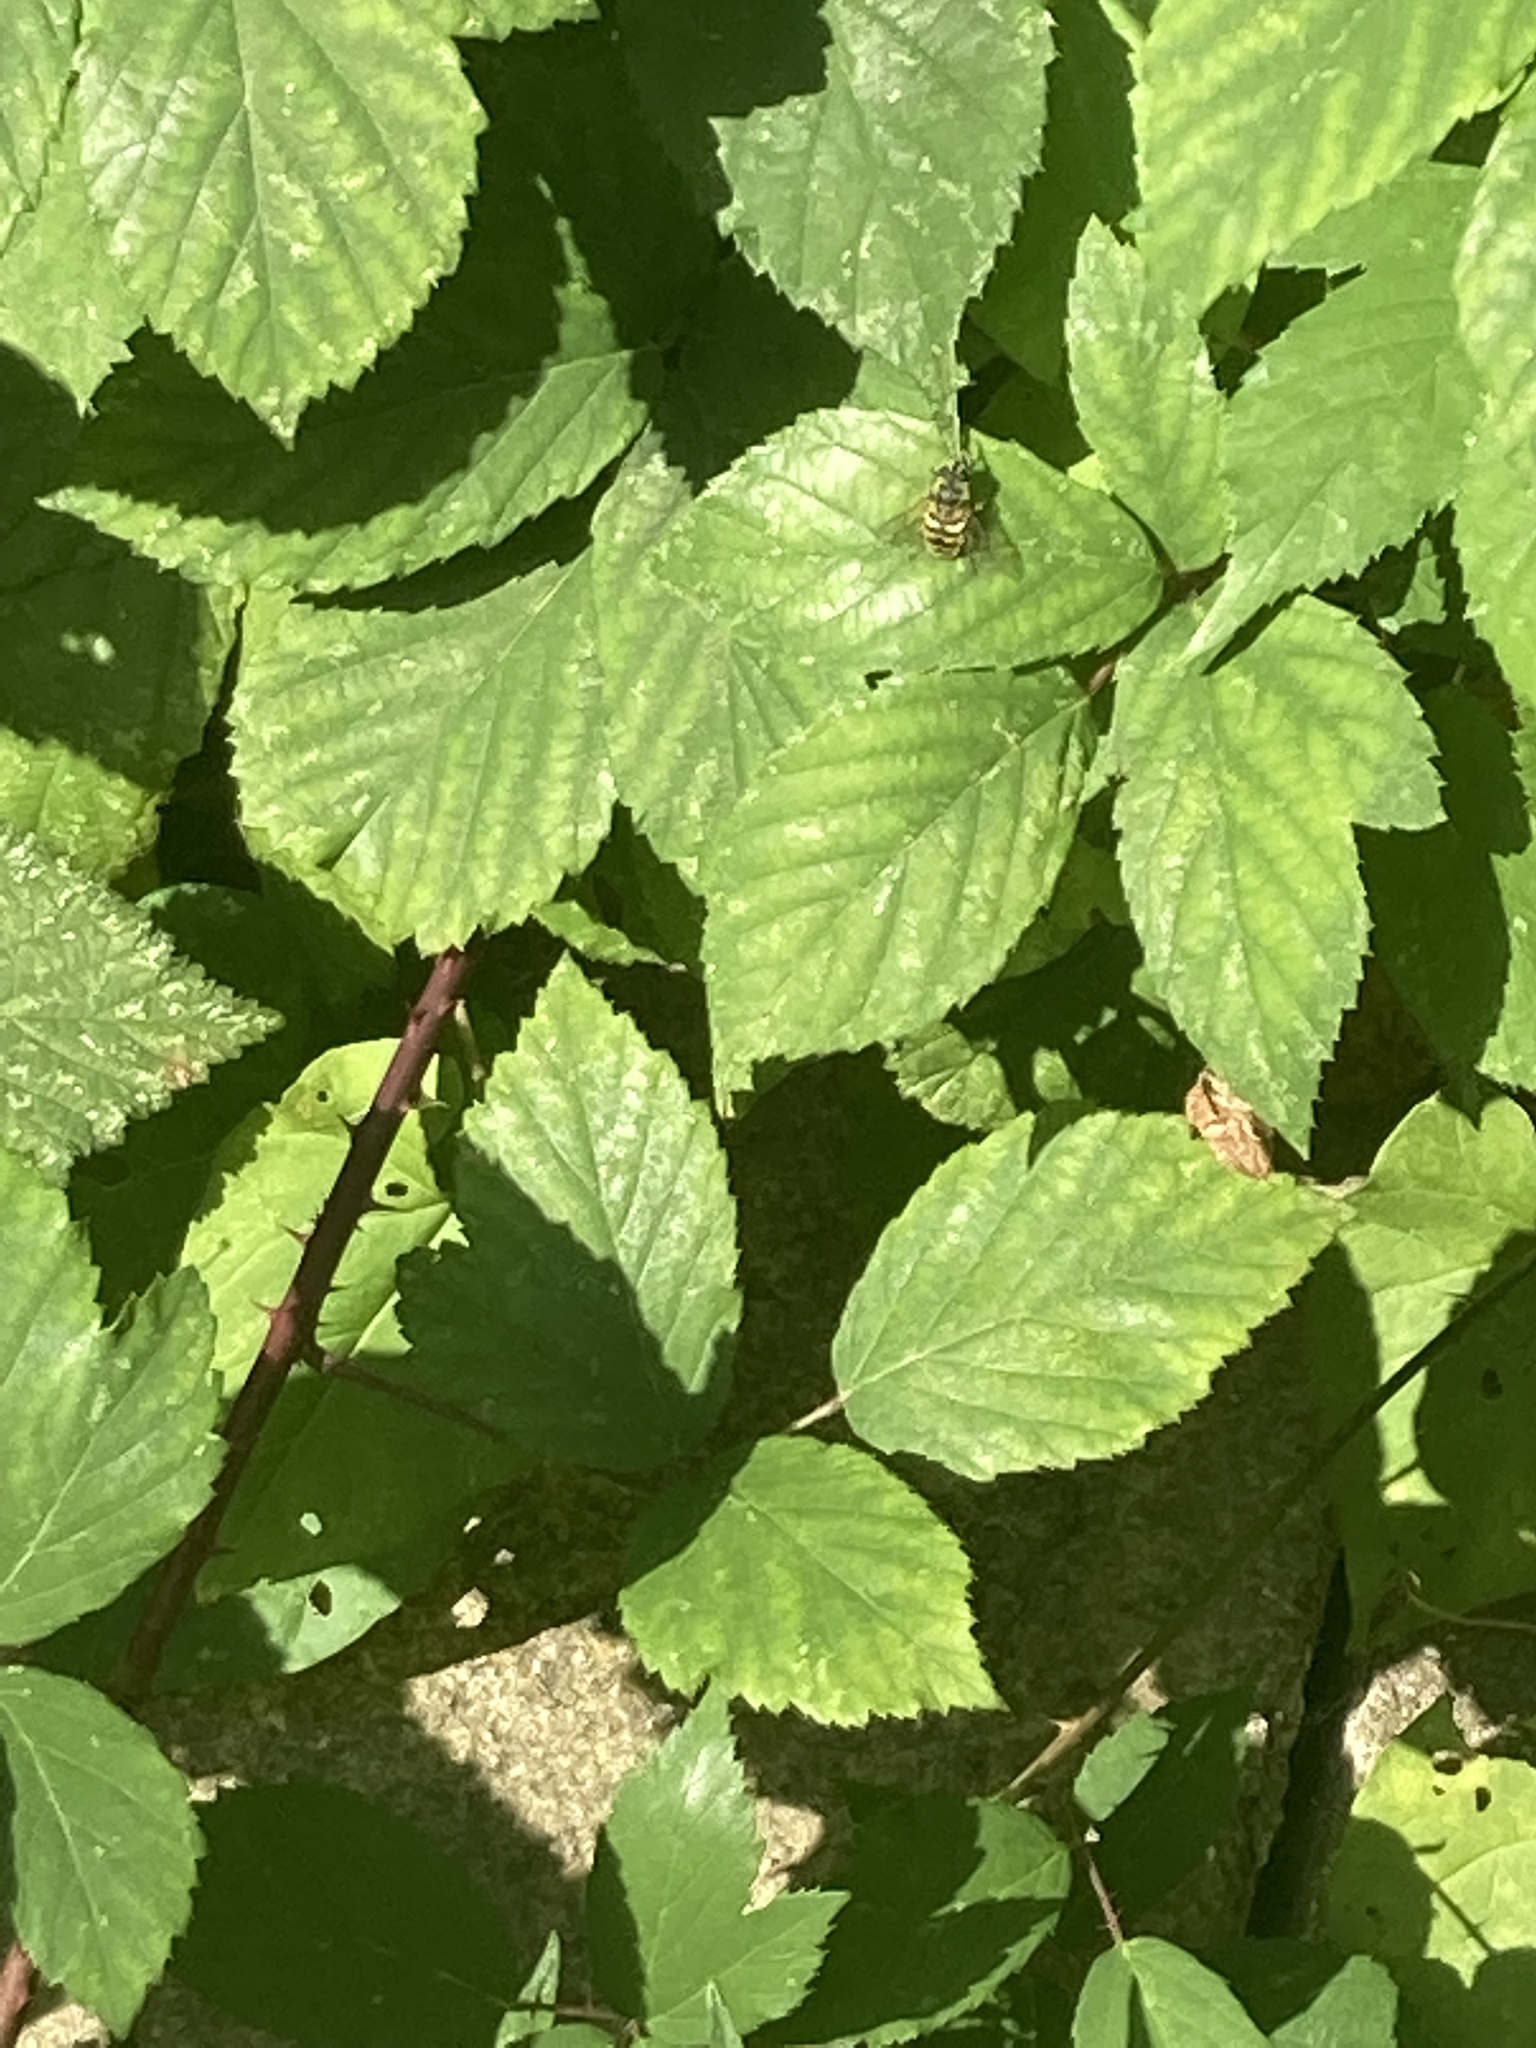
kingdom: Animalia
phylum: Arthropoda
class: Insecta
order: Diptera
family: Syrphidae
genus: Myathropa
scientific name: Myathropa florea
